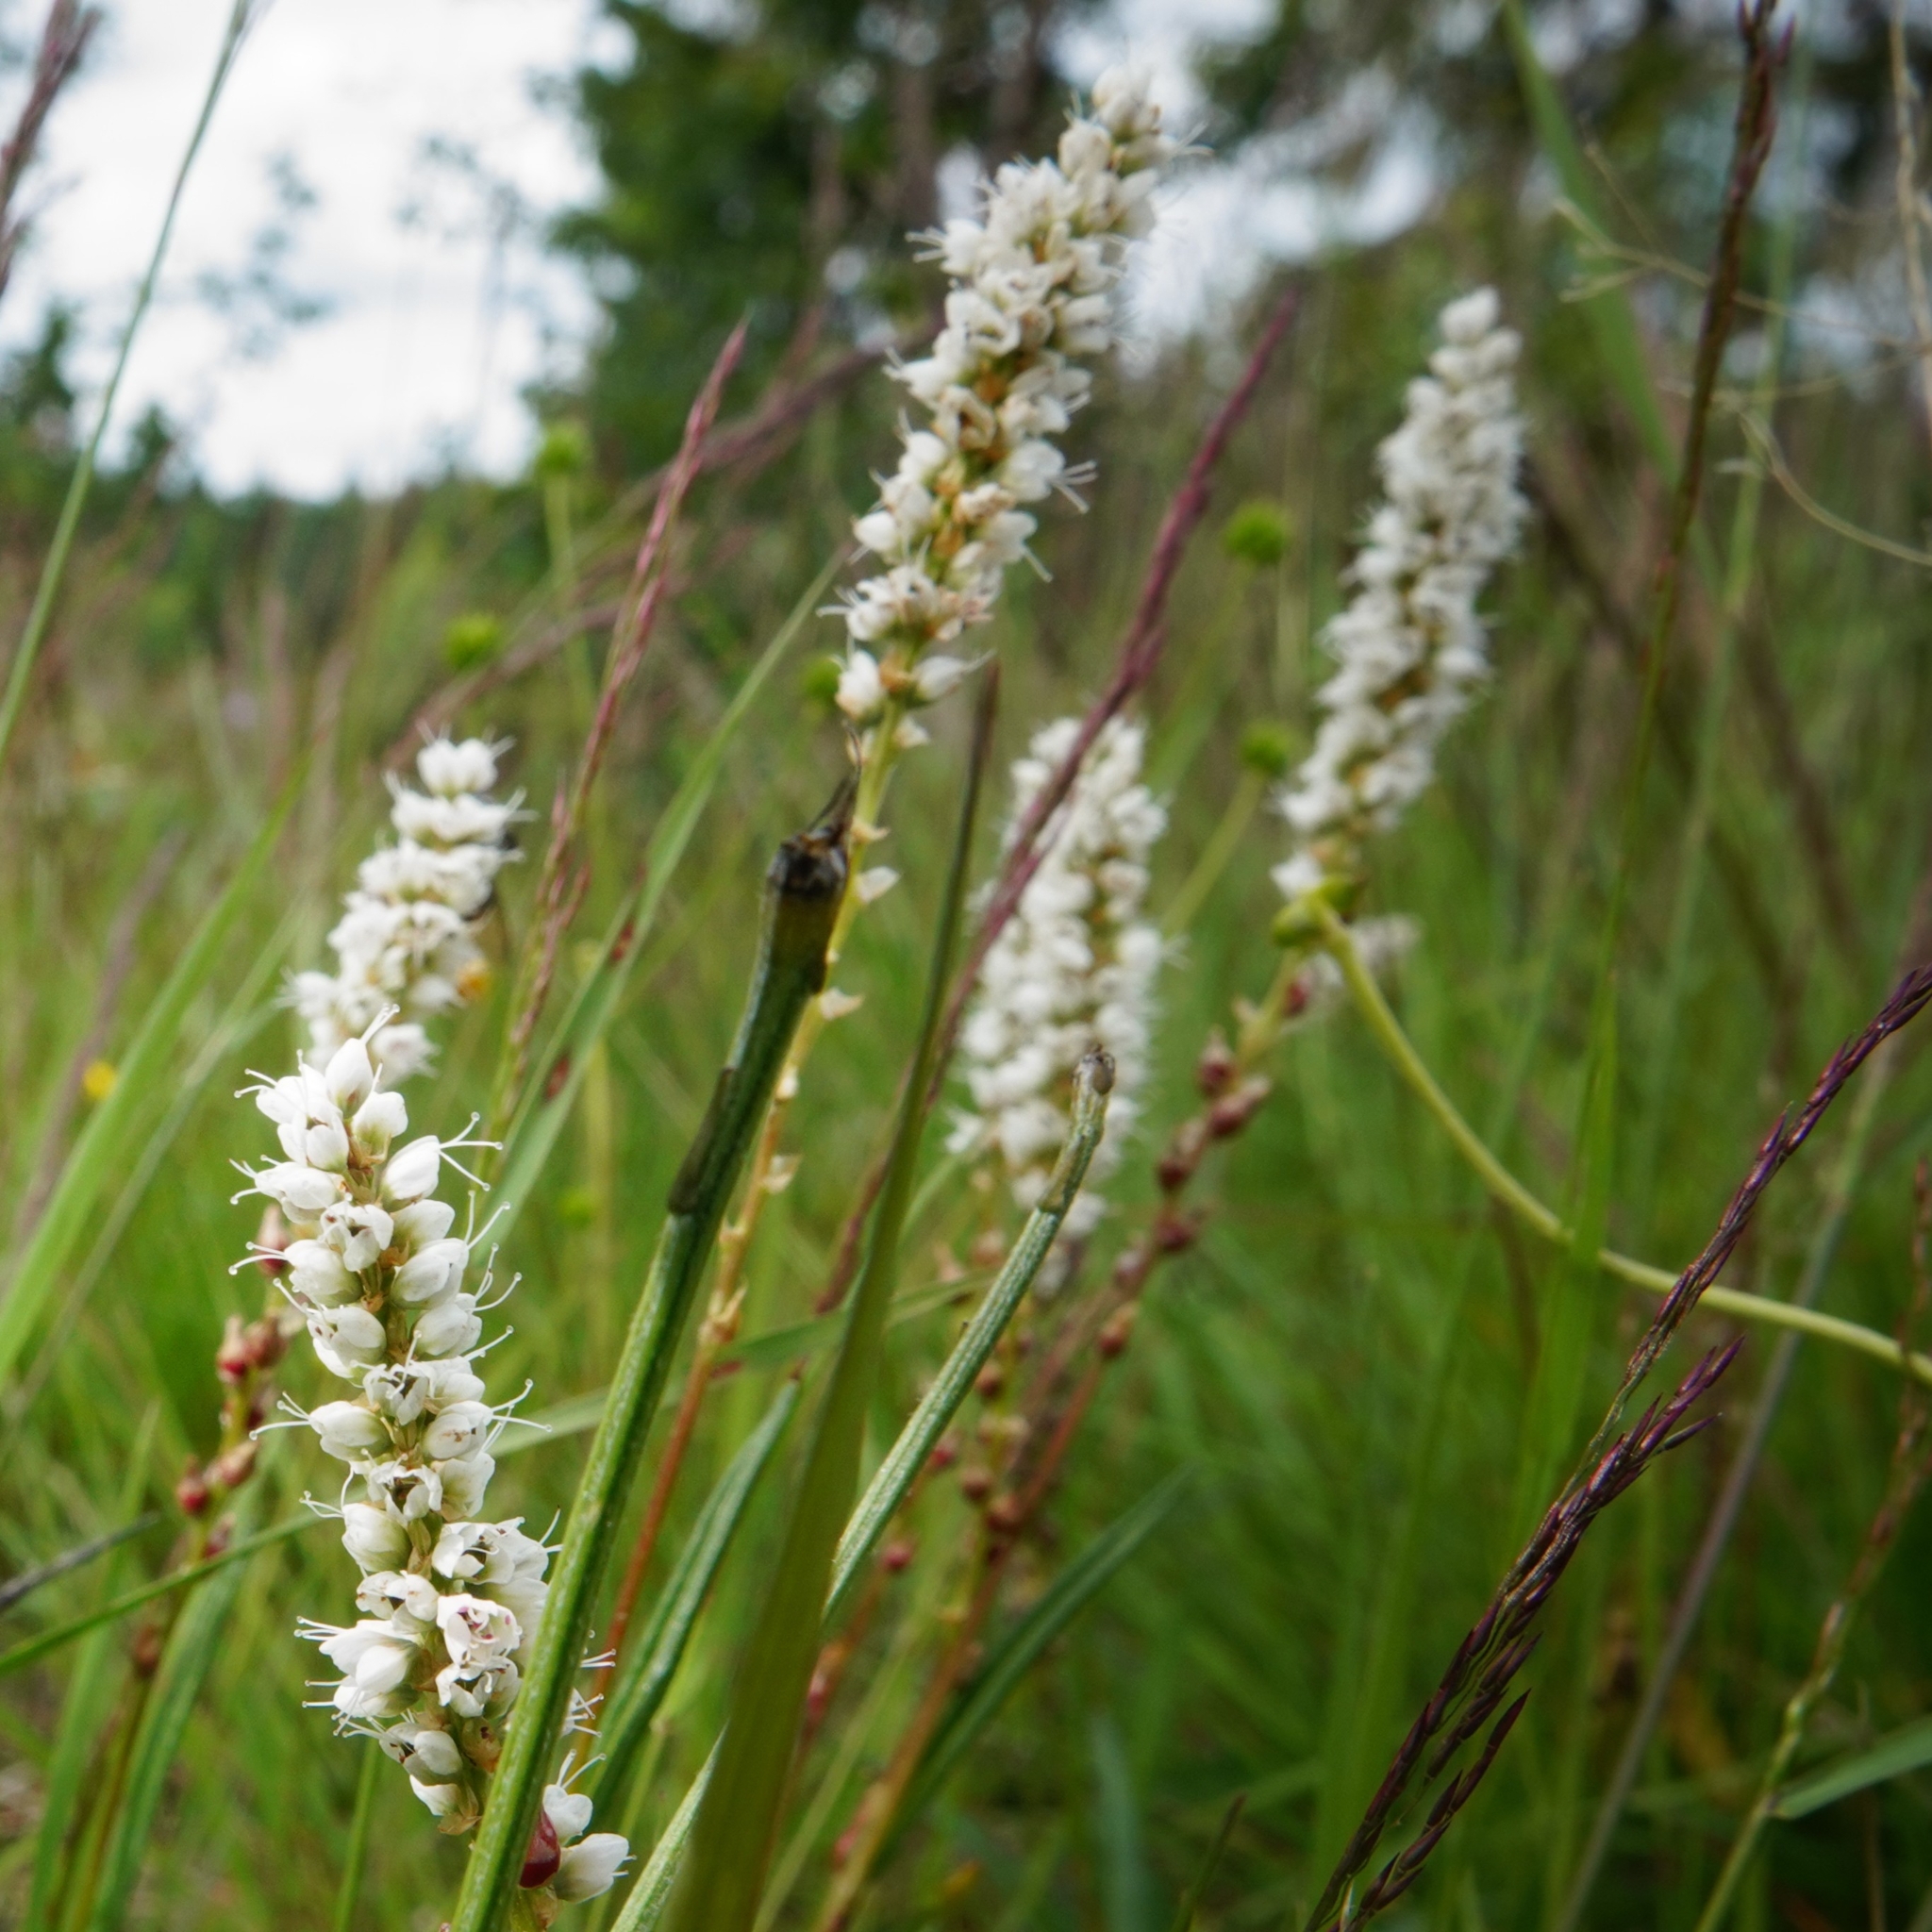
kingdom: Plantae
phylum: Tracheophyta
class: Magnoliopsida
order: Caryophyllales
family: Polygonaceae
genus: Bistorta
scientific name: Bistorta vivipara
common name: Alpine bistort
